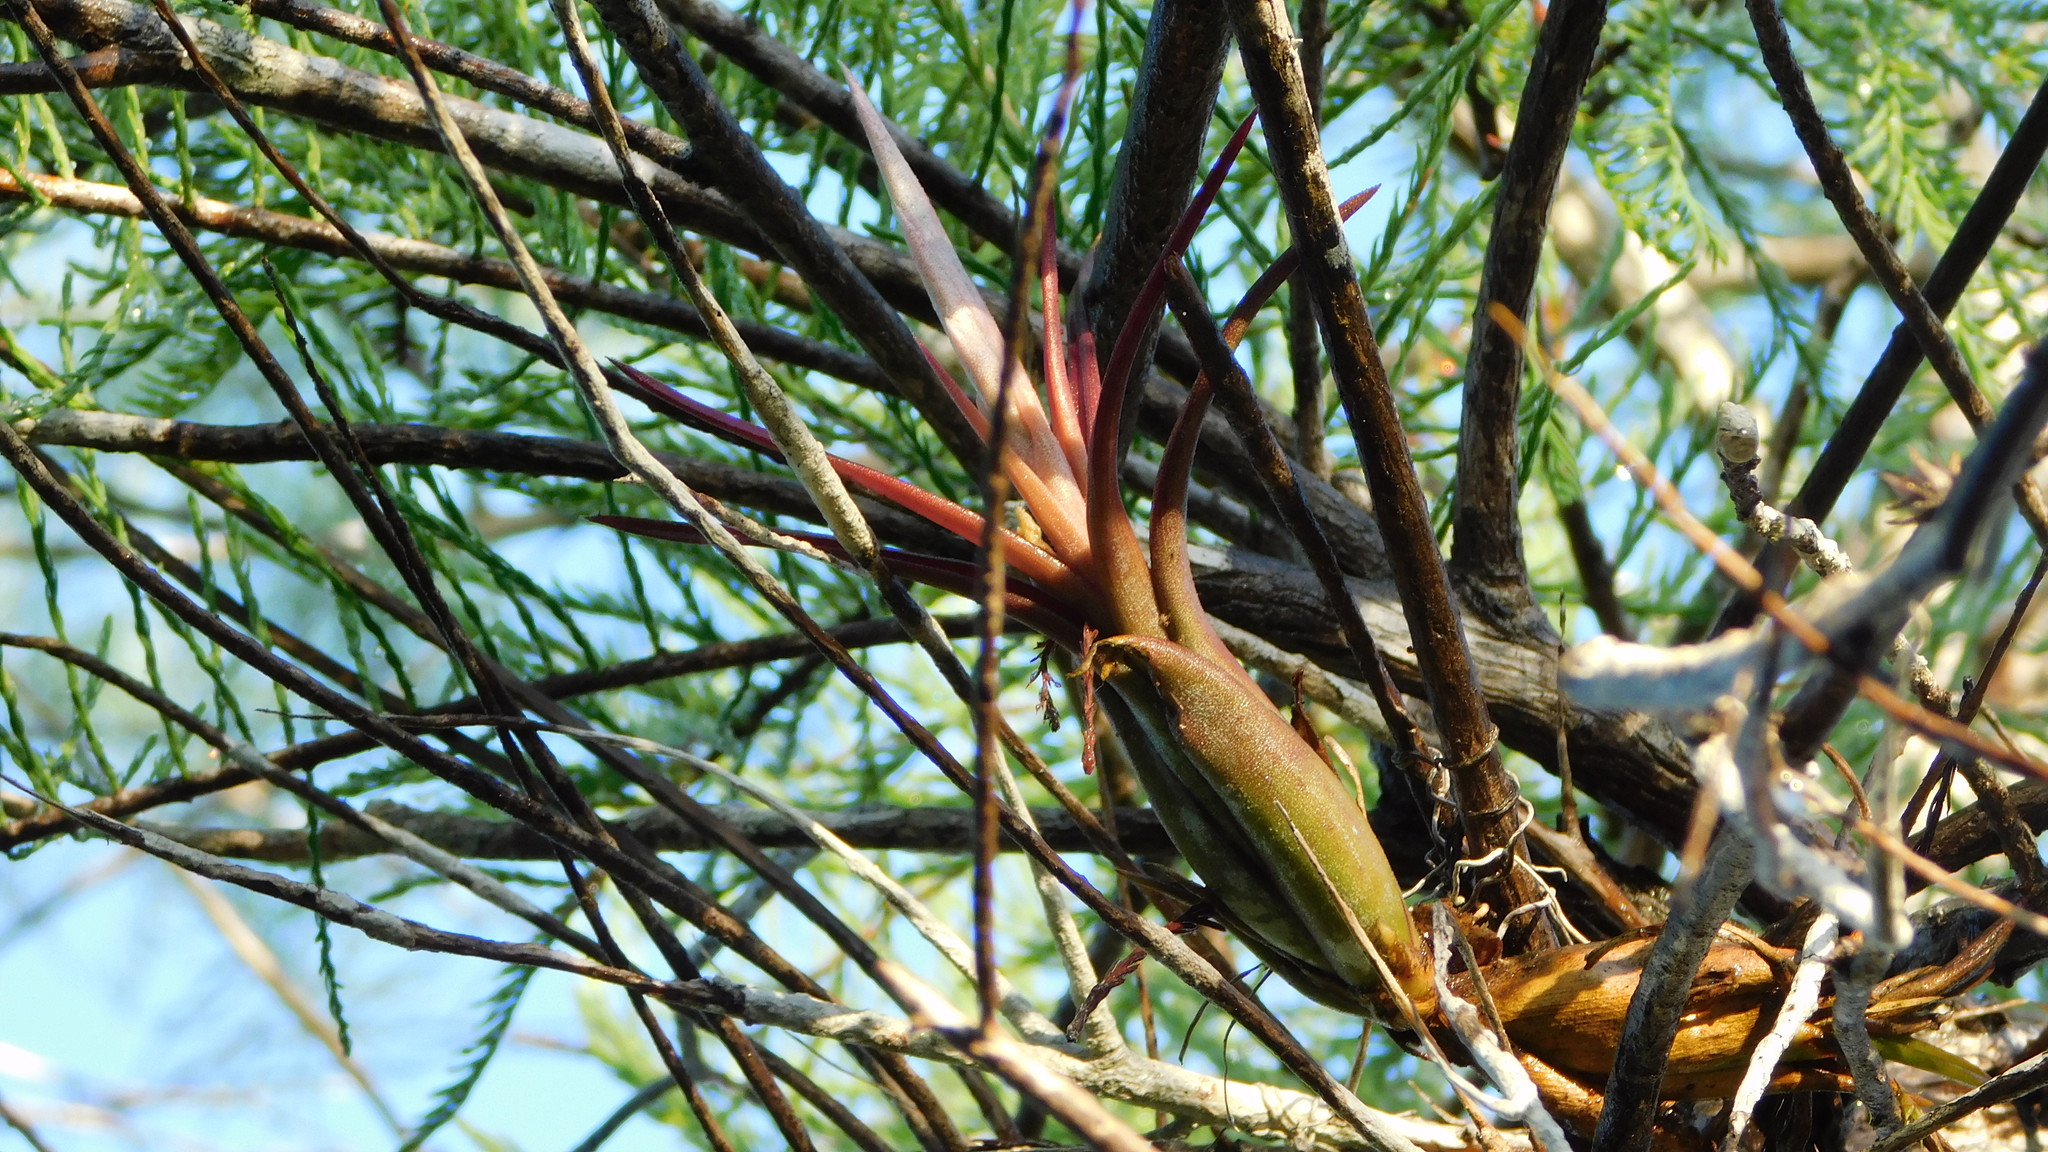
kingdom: Plantae
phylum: Tracheophyta
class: Liliopsida
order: Poales
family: Bromeliaceae
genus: Tillandsia
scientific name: Tillandsia paucifolia
